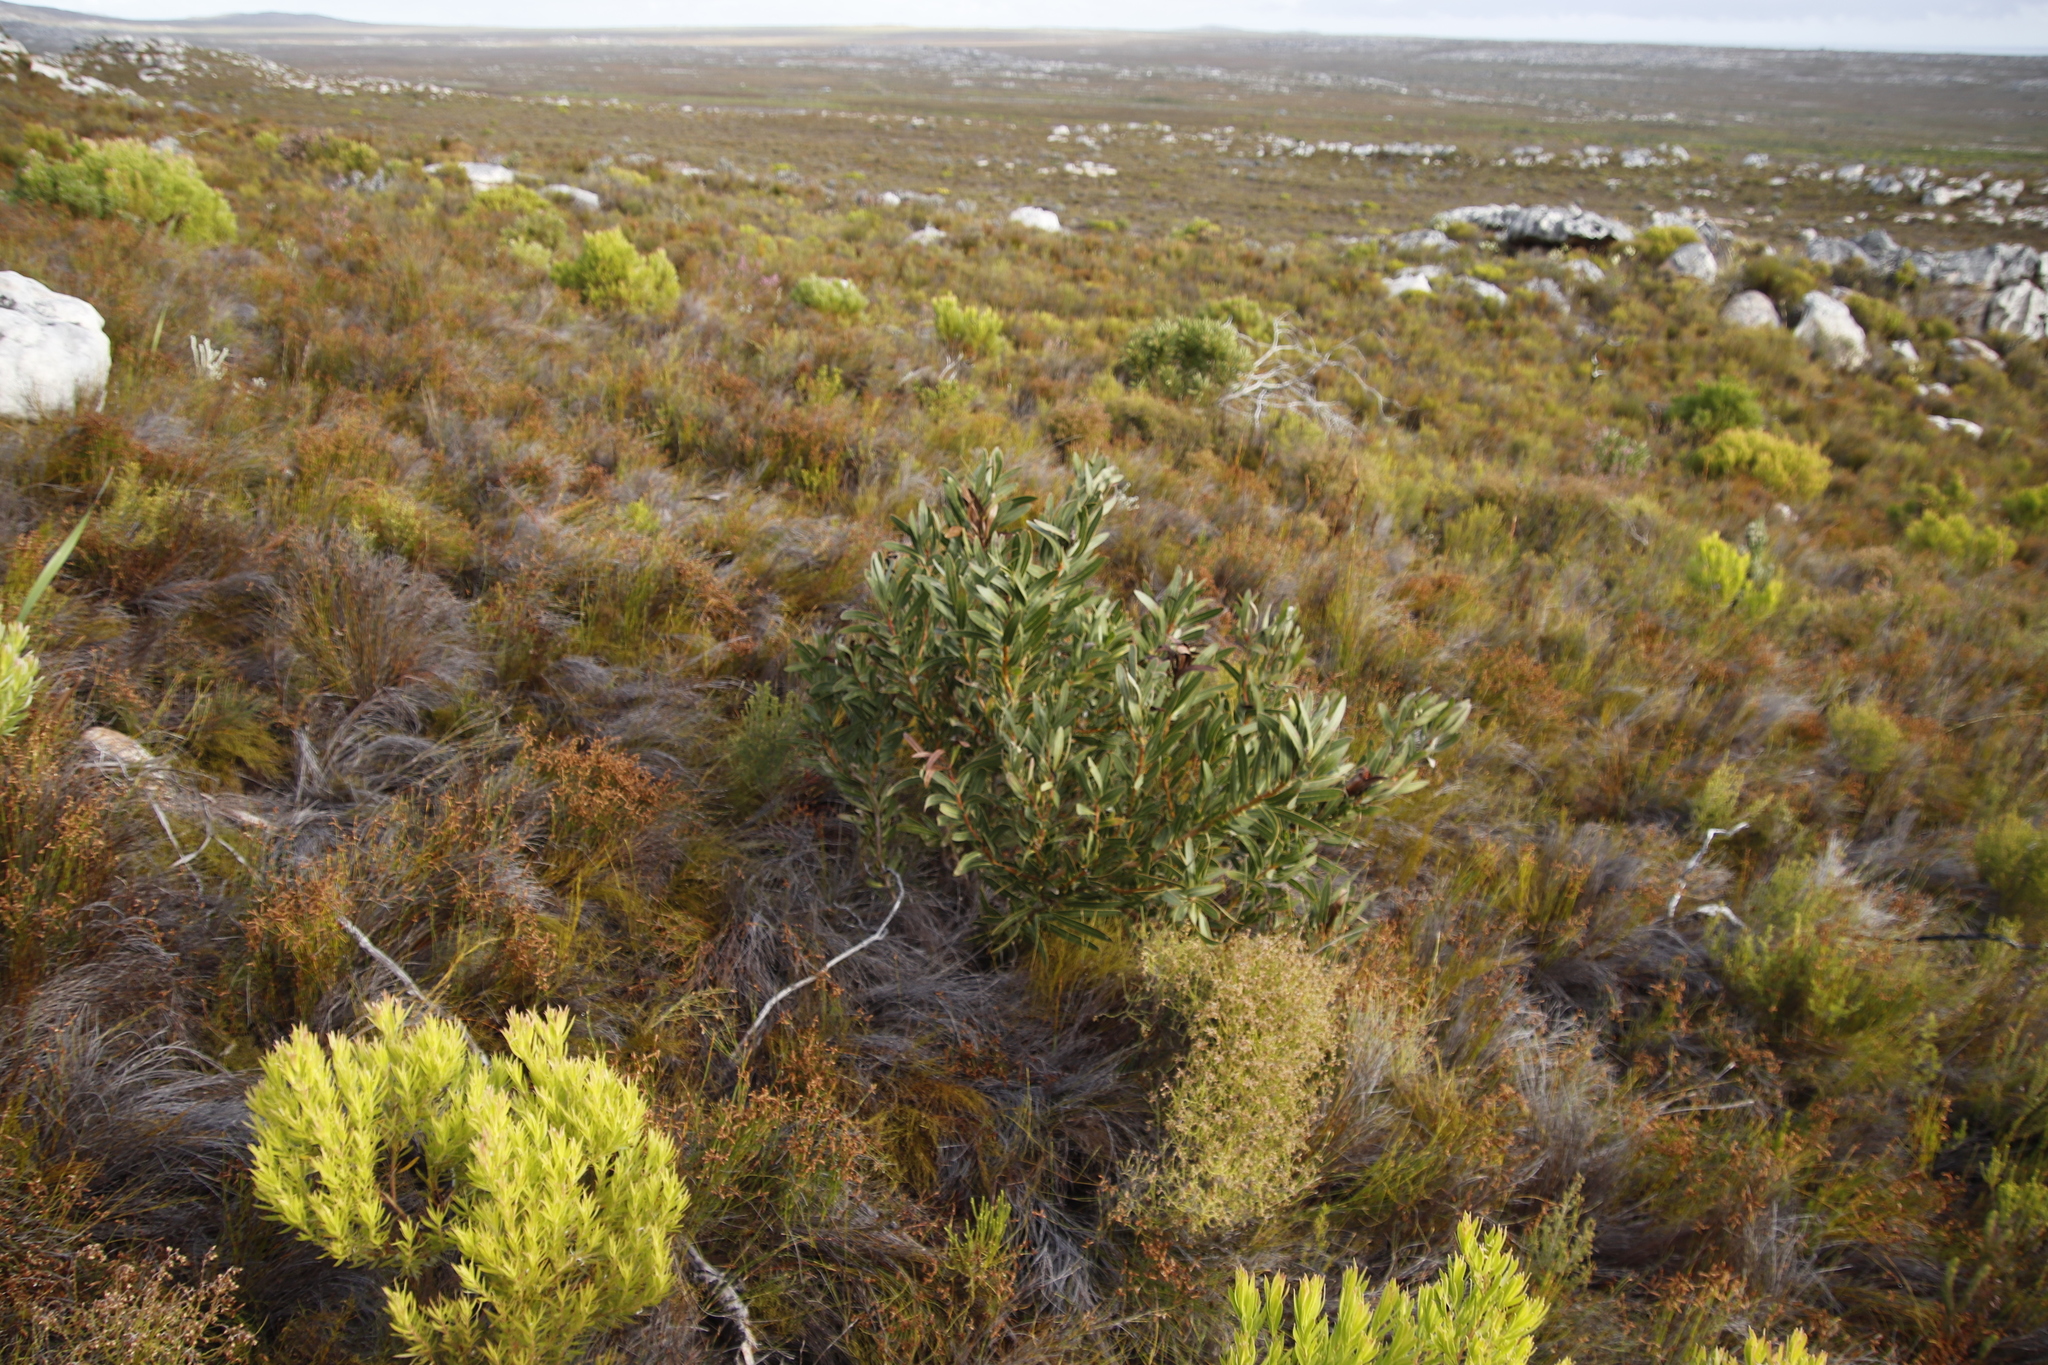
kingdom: Plantae
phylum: Tracheophyta
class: Magnoliopsida
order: Proteales
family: Proteaceae
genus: Protea
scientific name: Protea lepidocarpodendron
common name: Black-bearded protea
